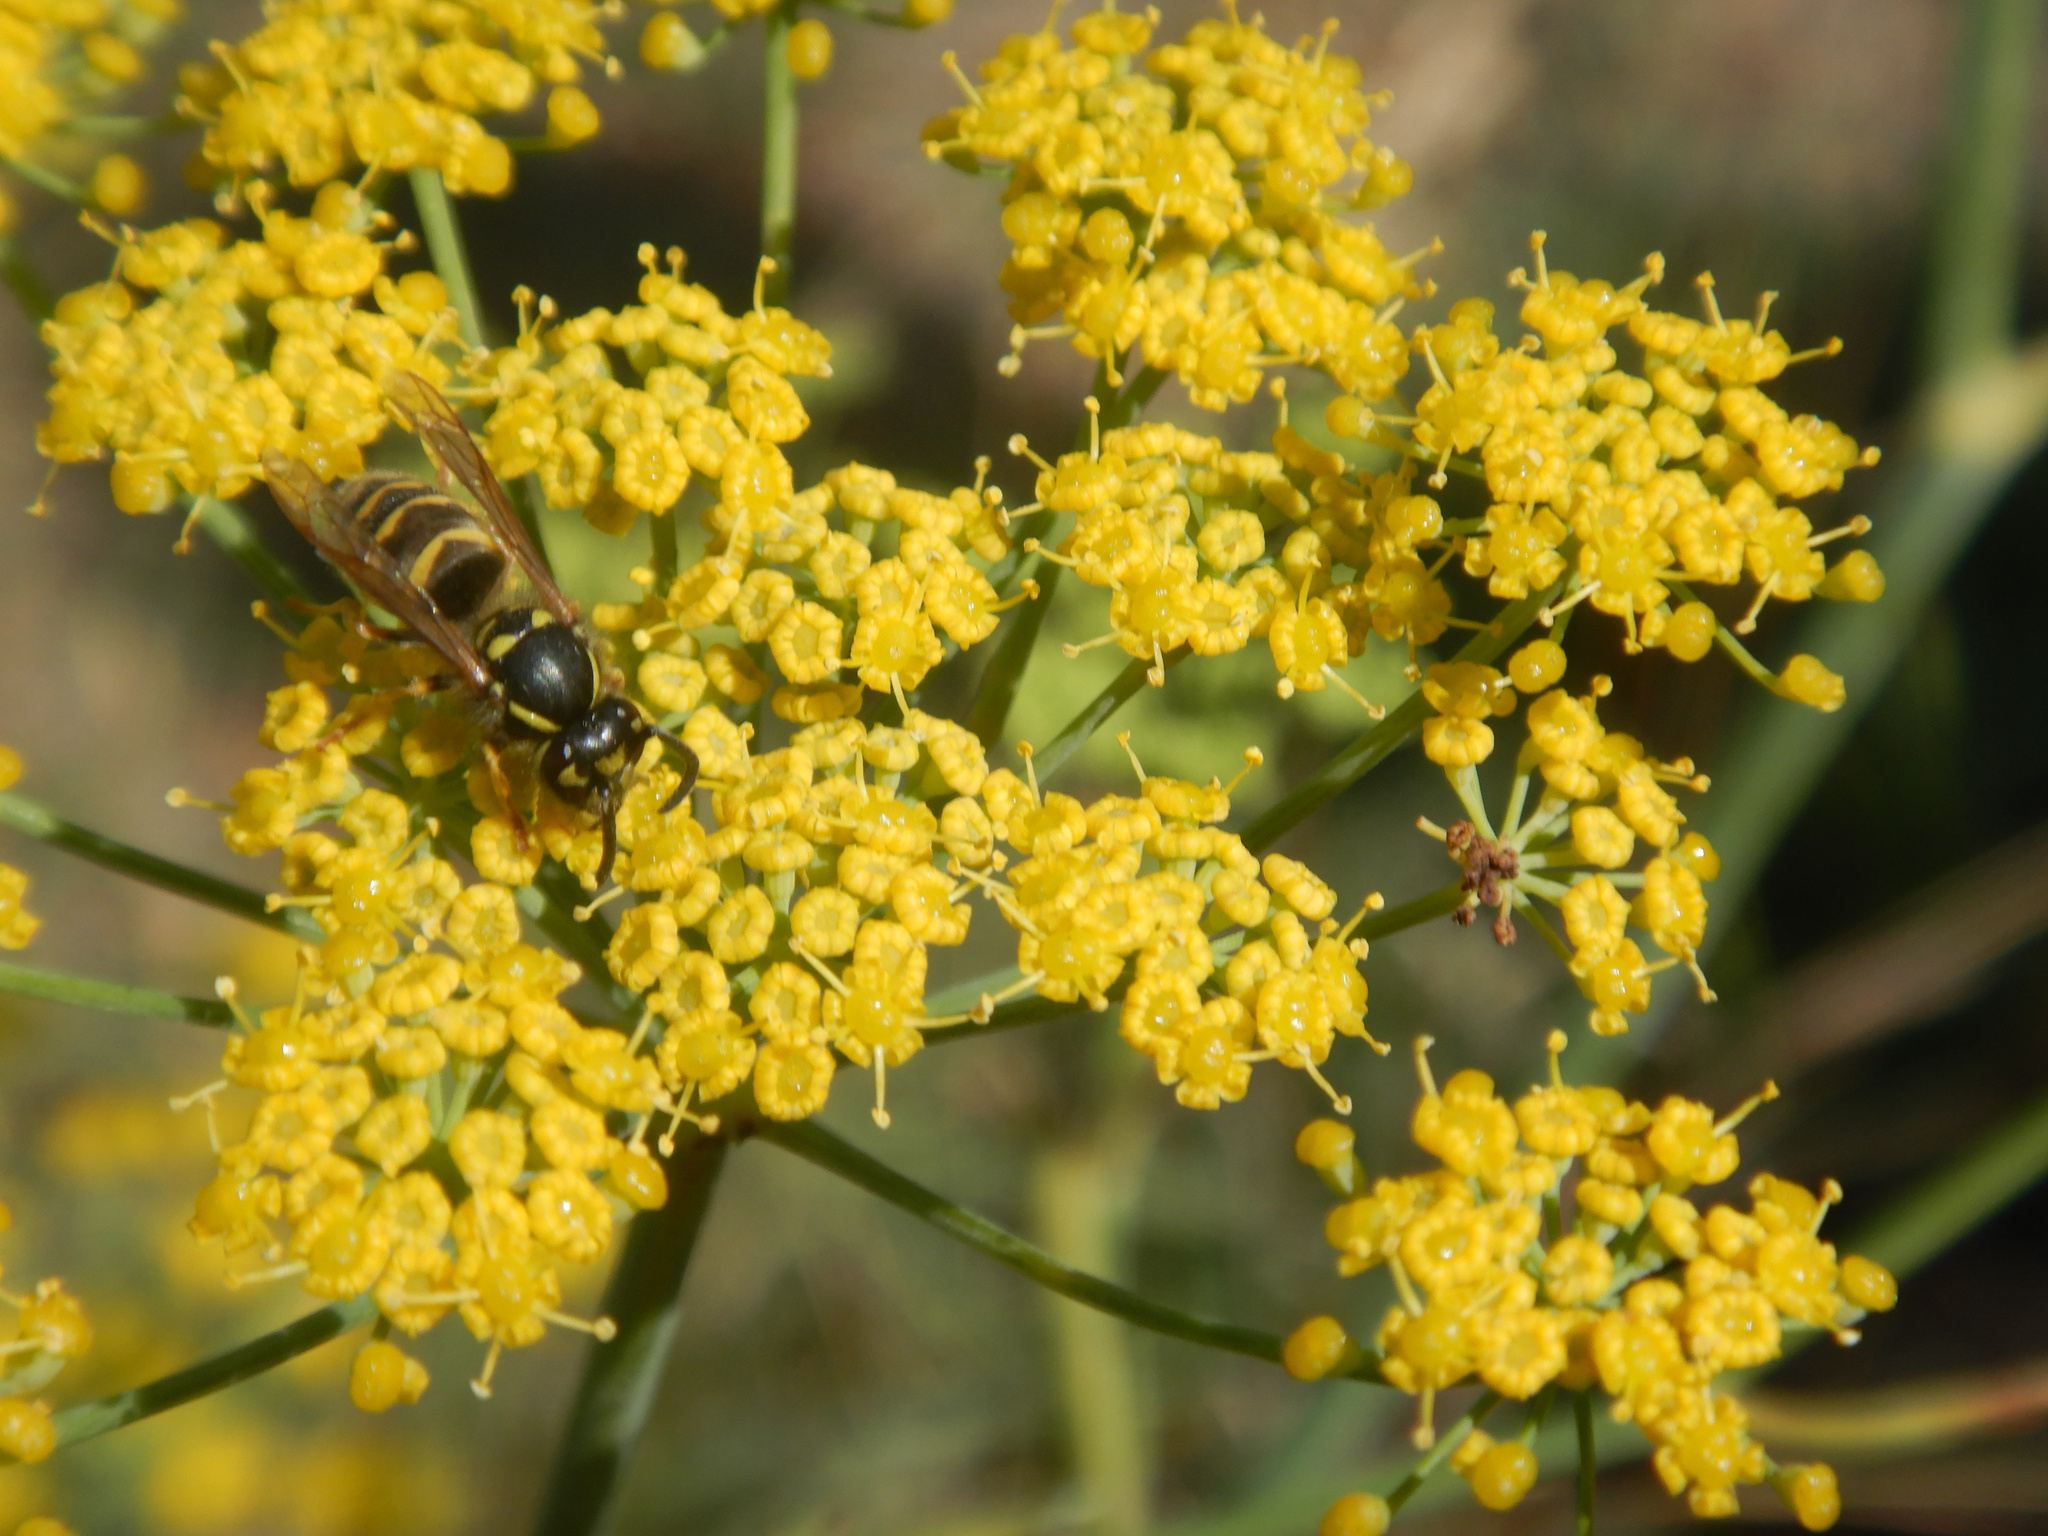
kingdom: Animalia
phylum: Arthropoda
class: Insecta
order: Hymenoptera
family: Vespidae
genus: Vespula
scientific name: Vespula vulgaris
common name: Common wasp
